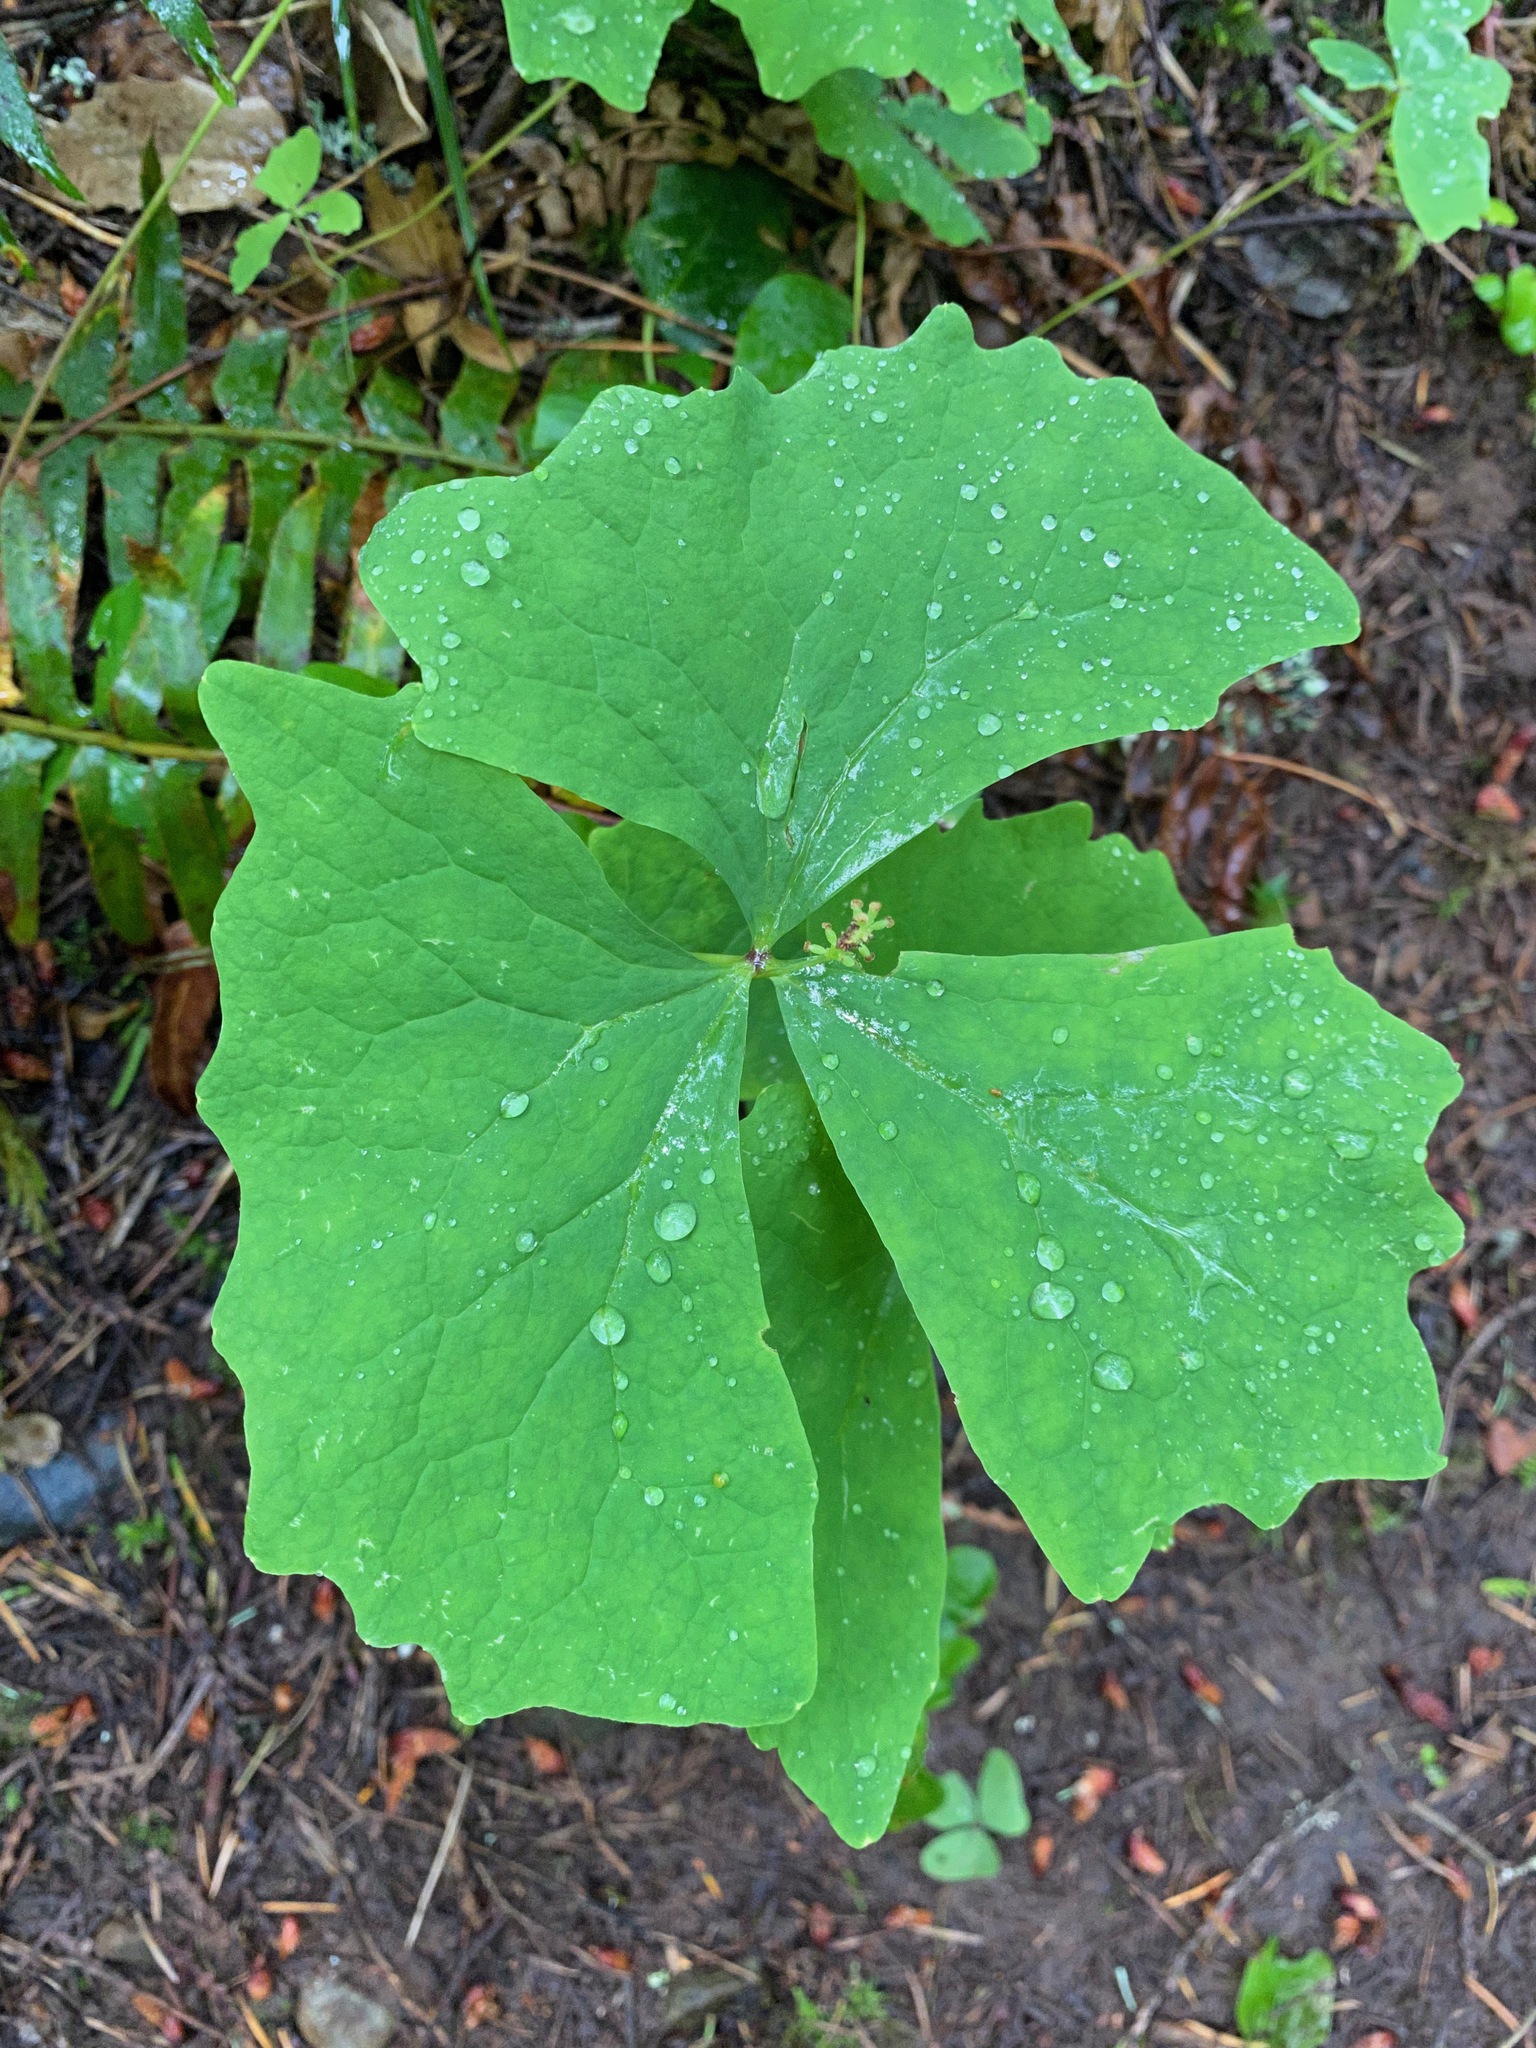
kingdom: Plantae
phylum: Tracheophyta
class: Magnoliopsida
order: Ranunculales
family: Berberidaceae
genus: Achlys
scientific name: Achlys triphylla
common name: Vanilla-leaf
